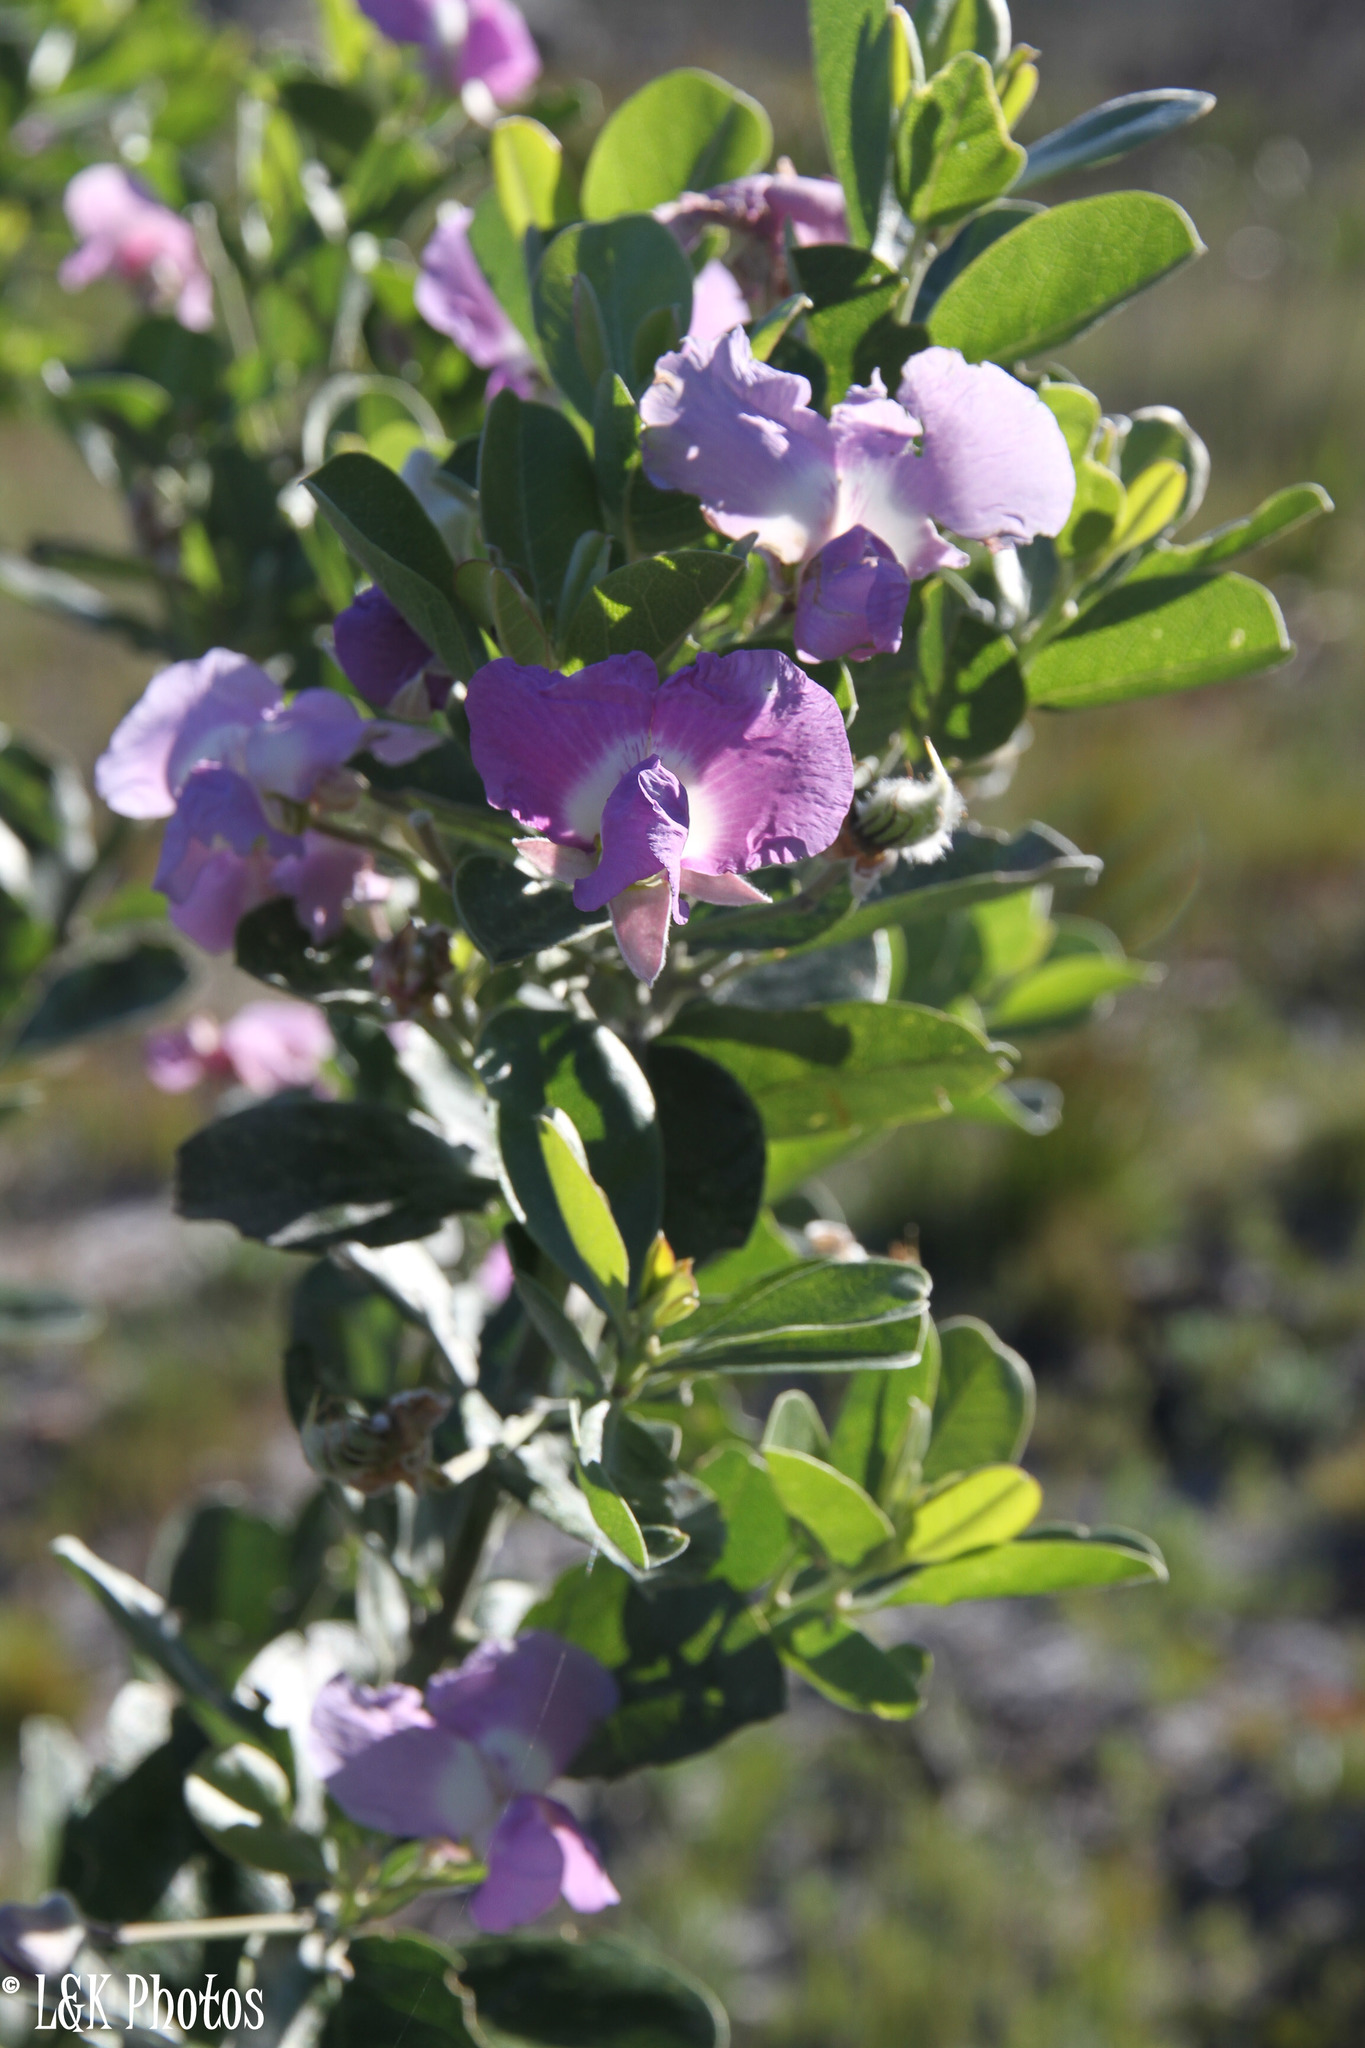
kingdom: Plantae
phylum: Tracheophyta
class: Magnoliopsida
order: Fabales
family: Fabaceae
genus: Podalyria
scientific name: Podalyria calyptrata
